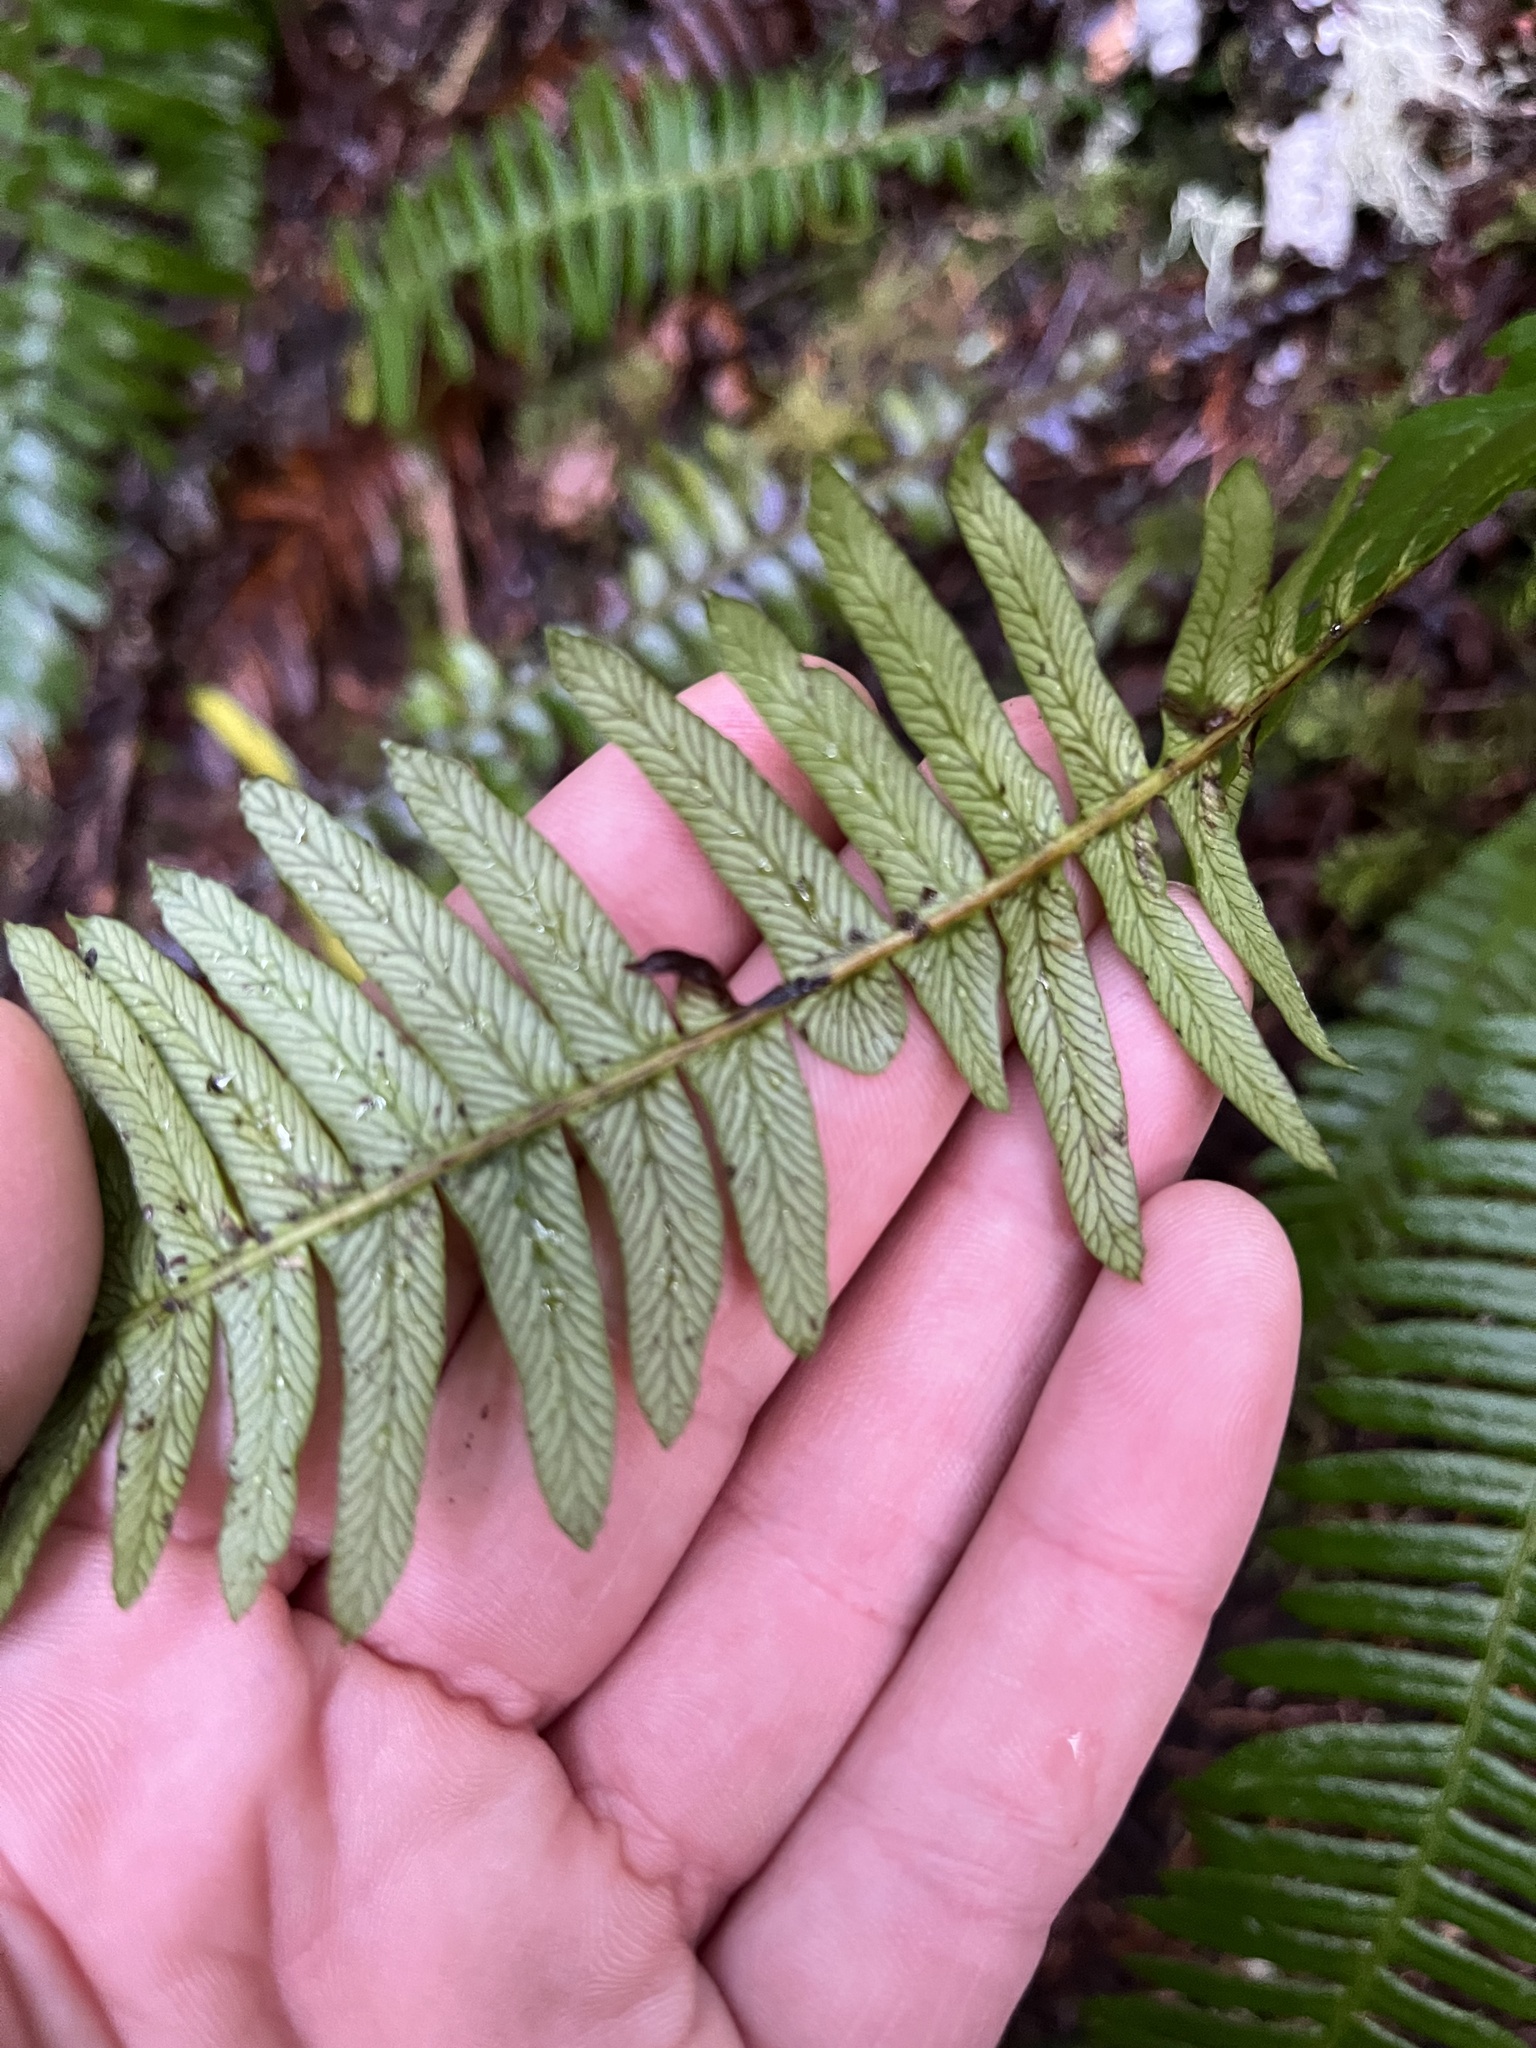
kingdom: Plantae
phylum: Tracheophyta
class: Polypodiopsida
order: Polypodiales
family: Blechnaceae
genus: Struthiopteris
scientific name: Struthiopteris spicant
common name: Deer fern
